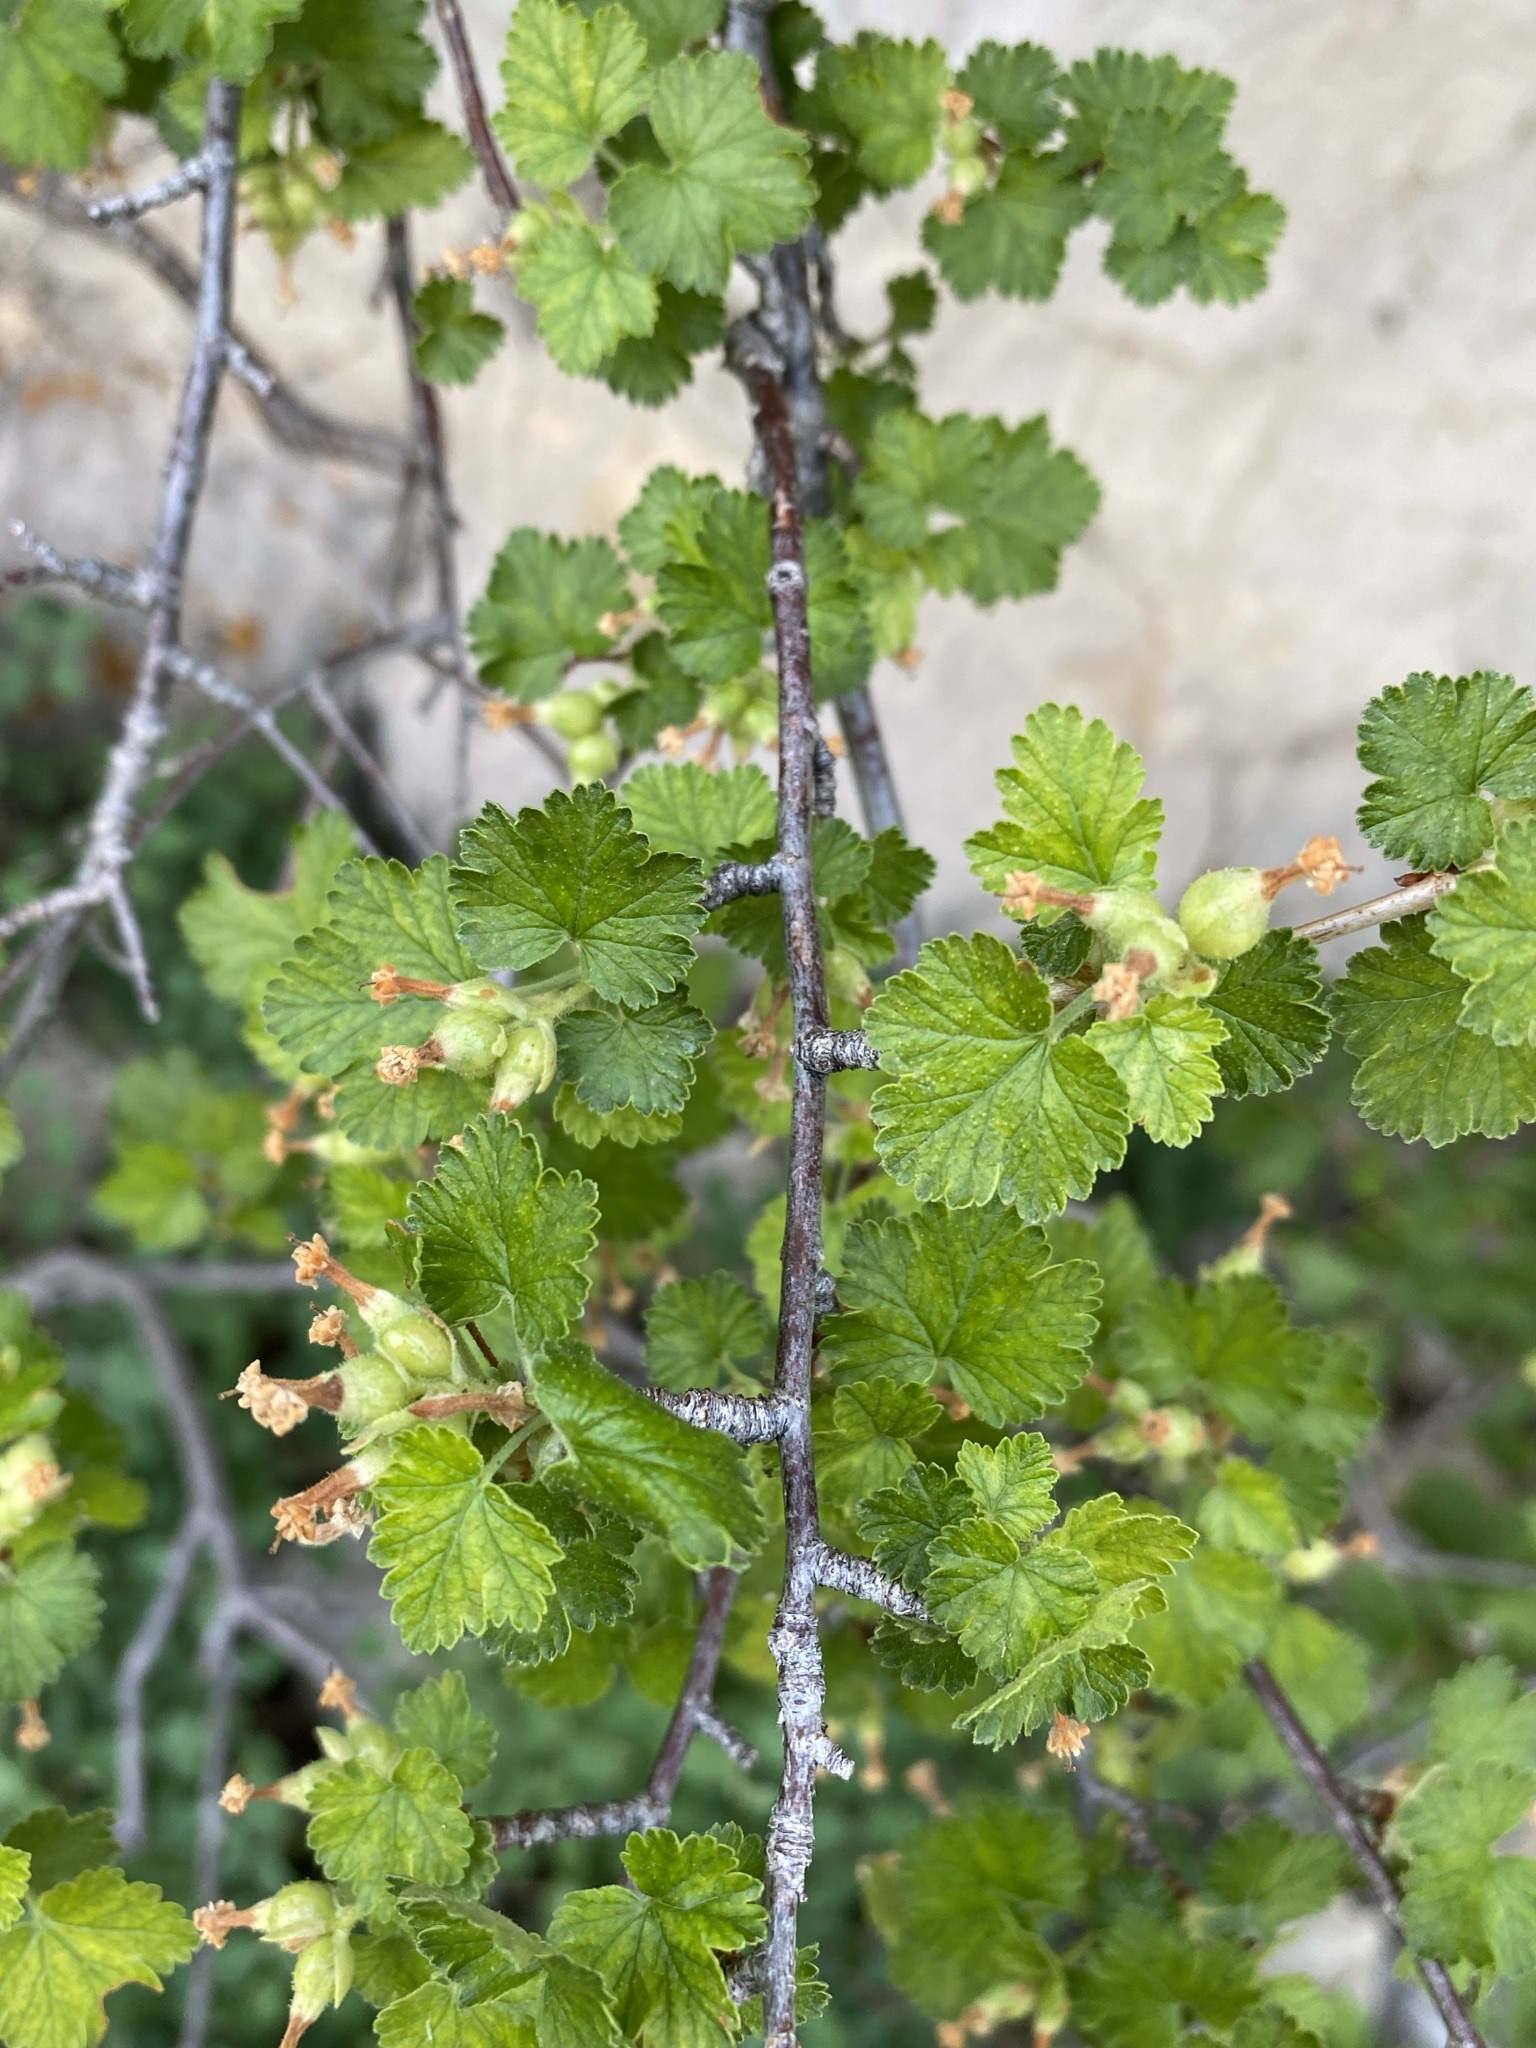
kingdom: Plantae
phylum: Tracheophyta
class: Magnoliopsida
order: Saxifragales
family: Grossulariaceae
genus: Ribes
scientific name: Ribes cereum
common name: Wax currant
